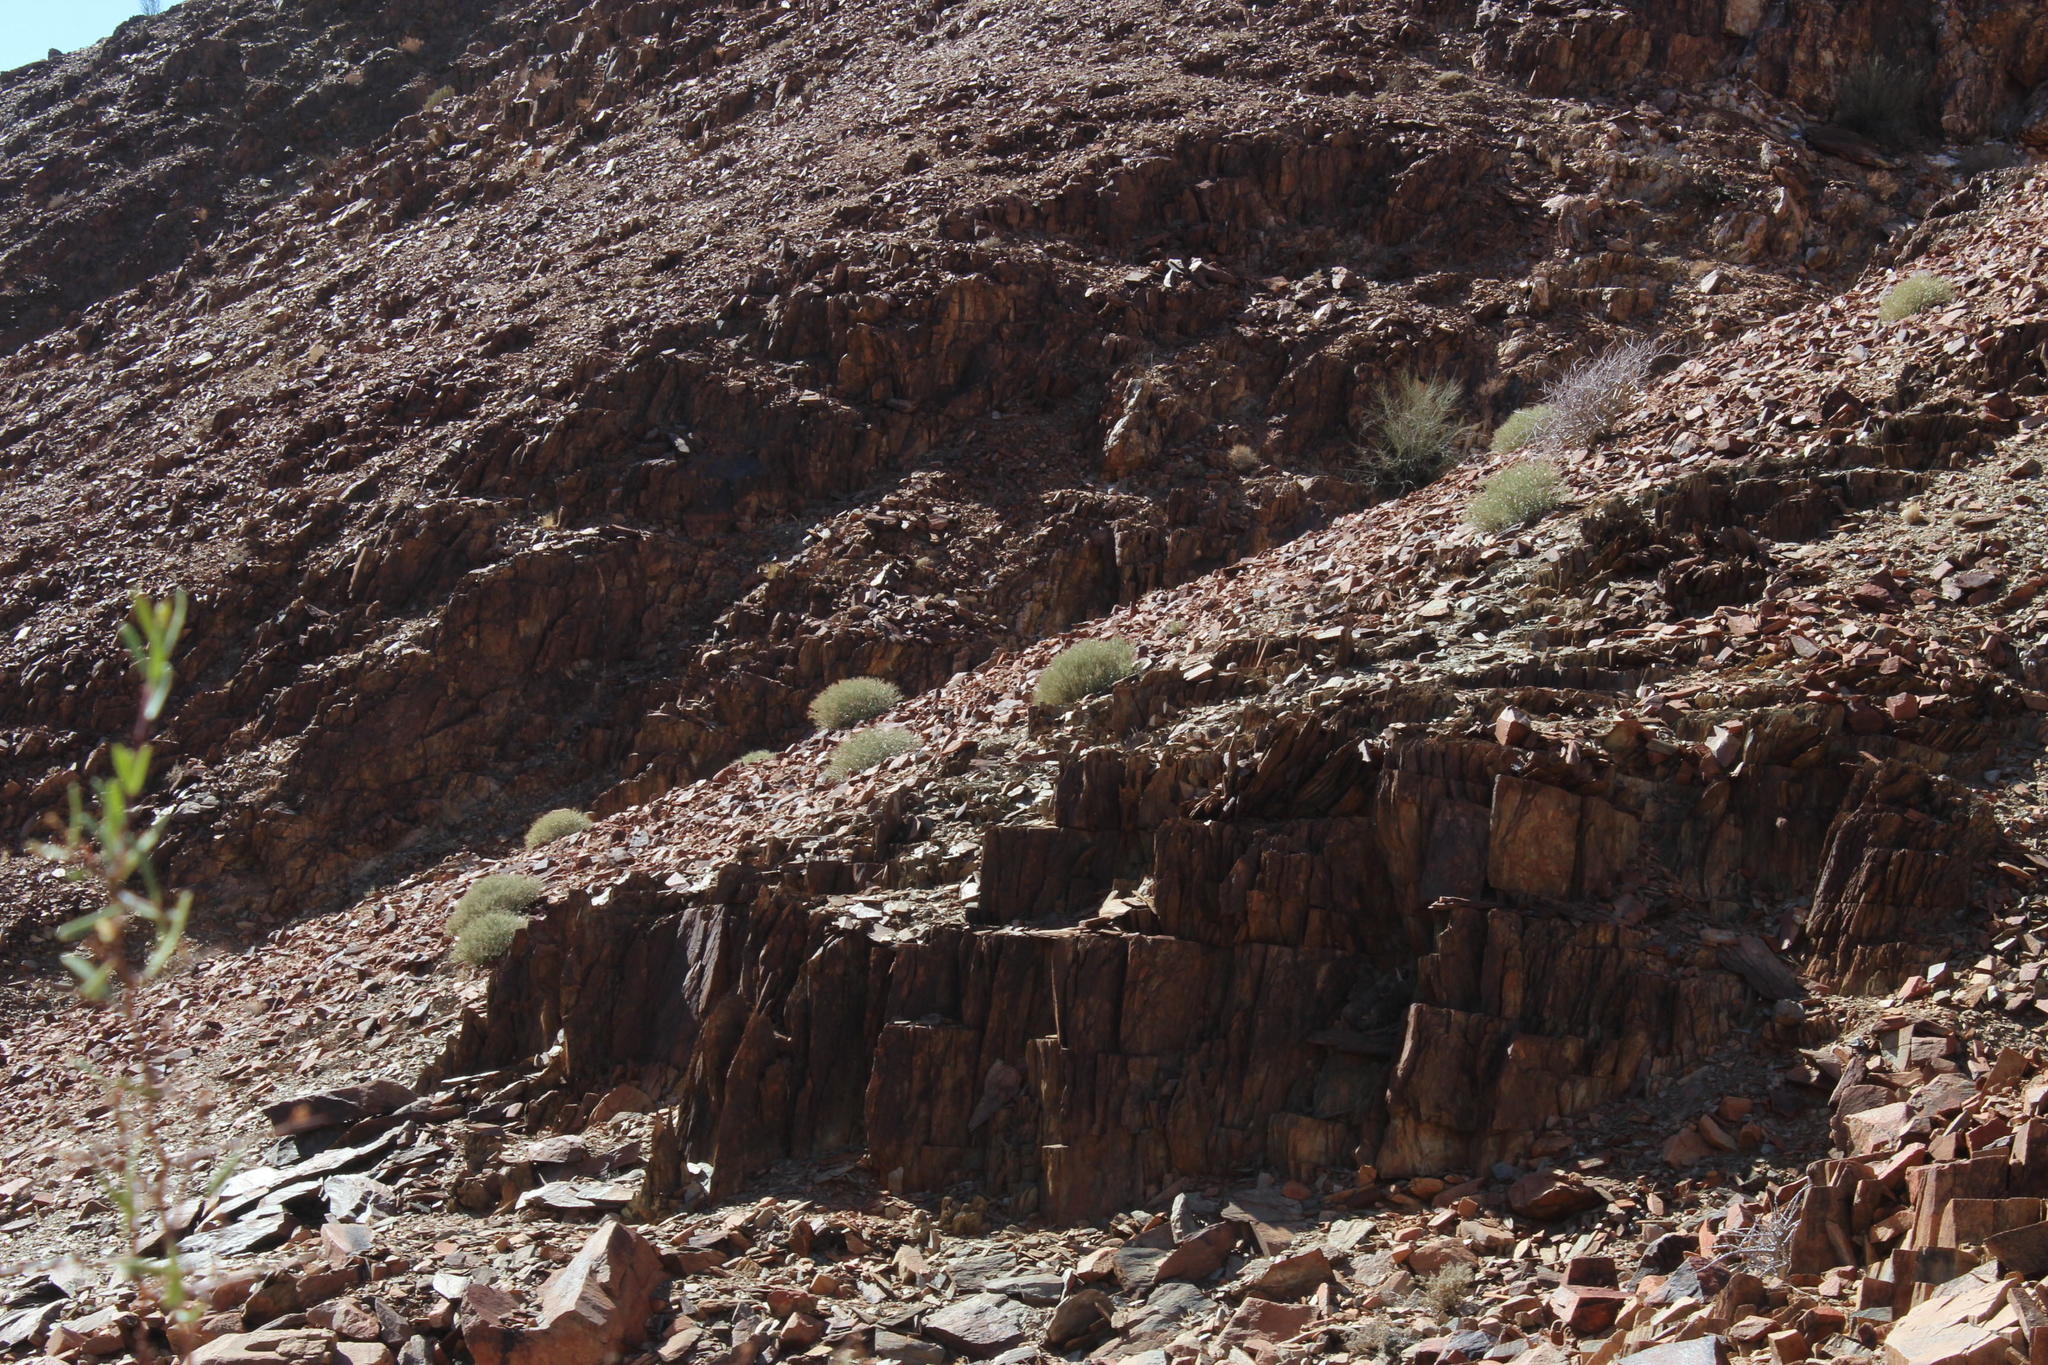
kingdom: Plantae
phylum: Tracheophyta
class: Magnoliopsida
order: Malpighiales
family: Euphorbiaceae
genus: Euphorbia
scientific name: Euphorbia gariepina
